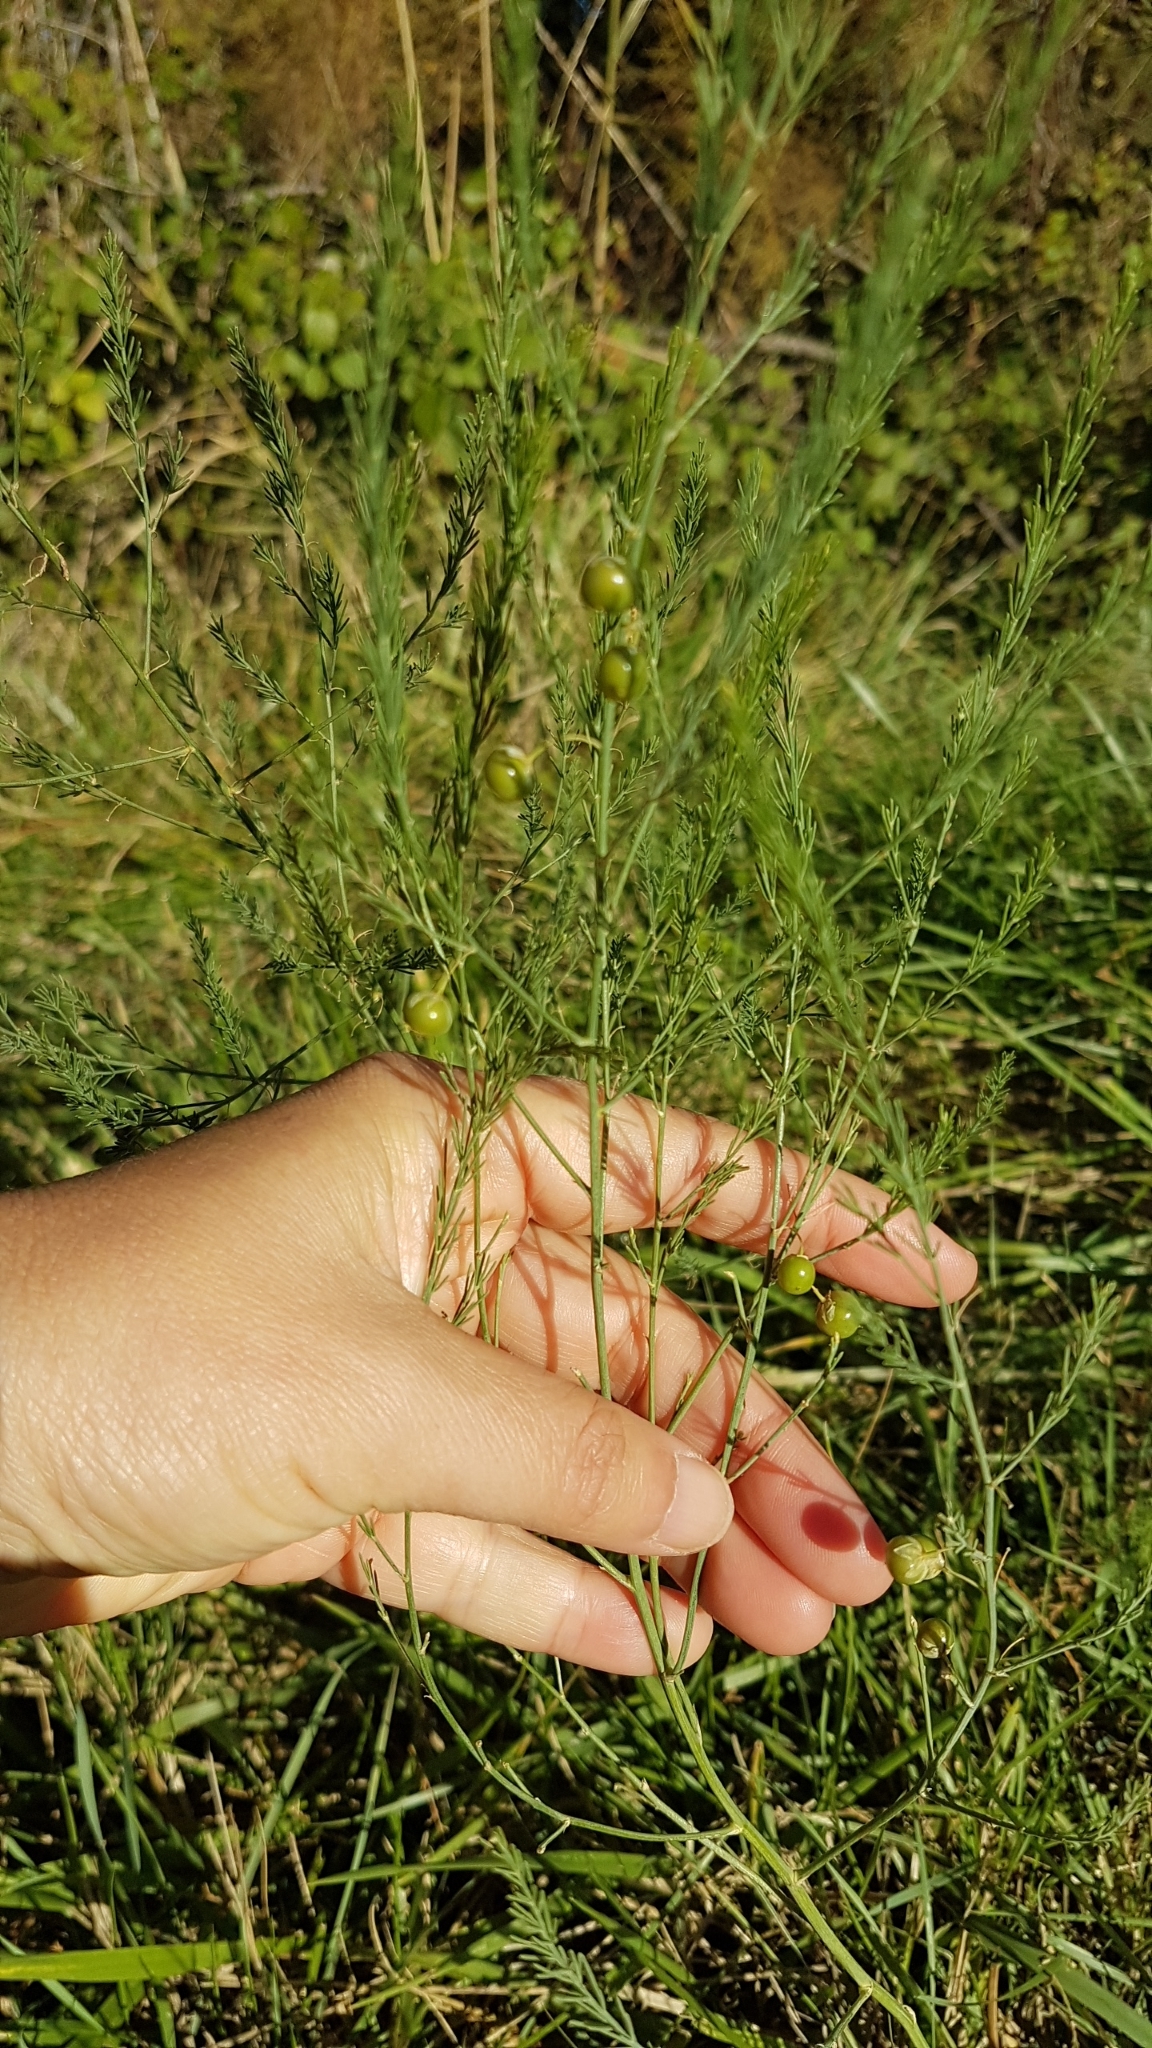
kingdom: Plantae
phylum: Tracheophyta
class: Liliopsida
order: Asparagales
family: Asparagaceae
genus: Asparagus
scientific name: Asparagus officinalis
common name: Garden asparagus
